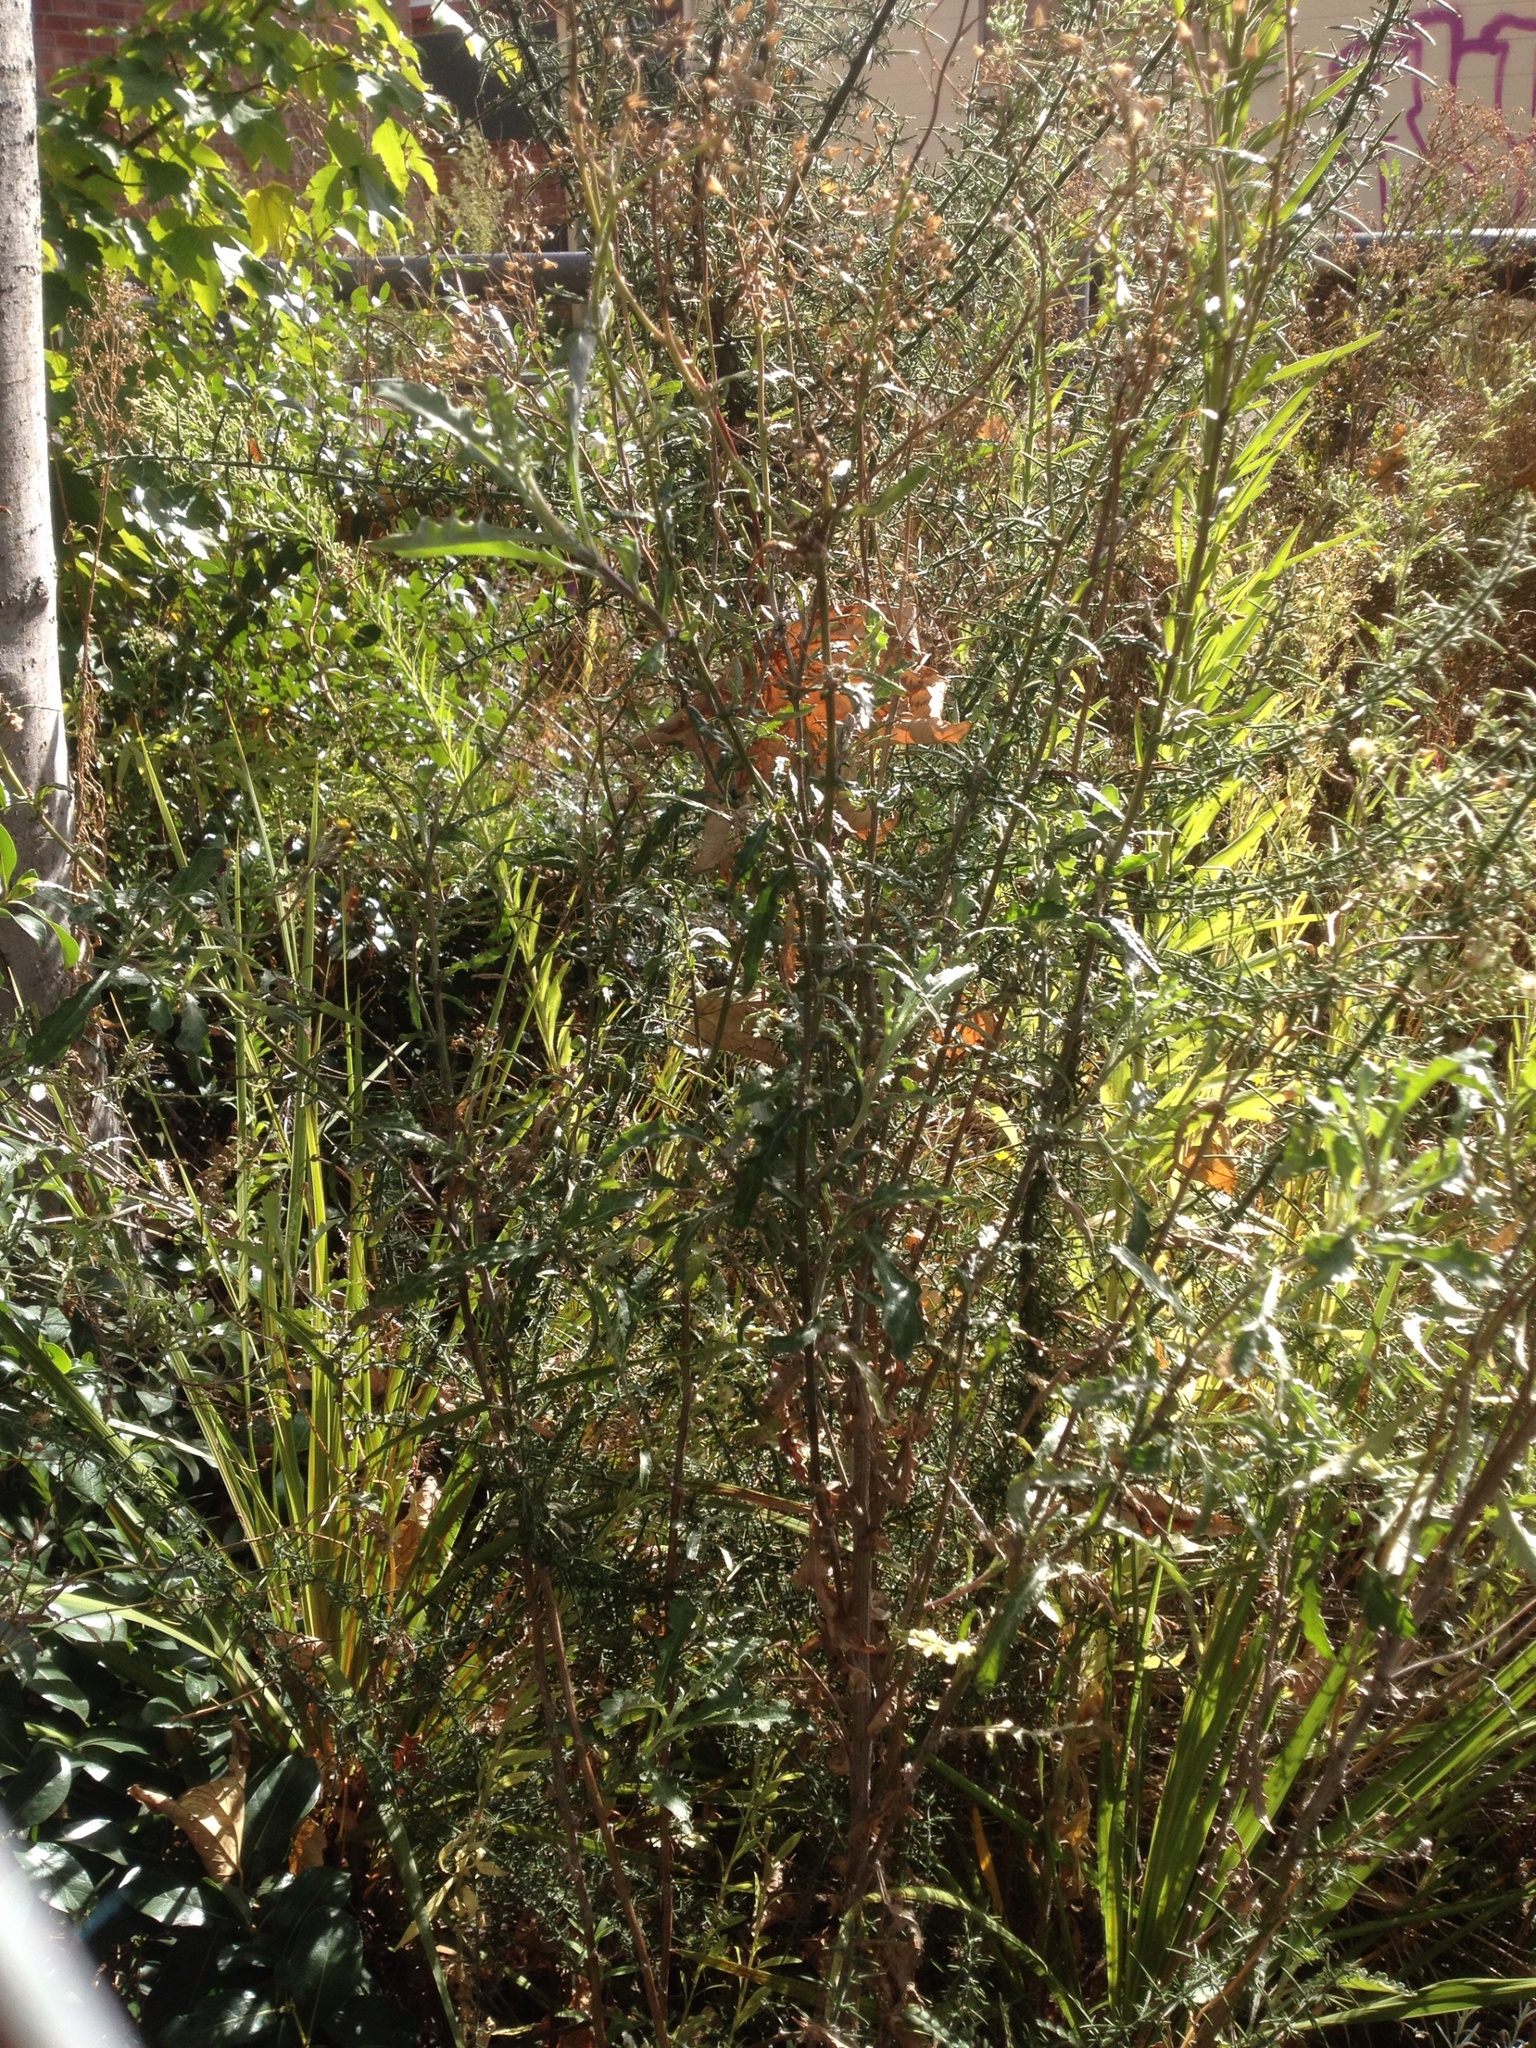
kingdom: Plantae
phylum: Tracheophyta
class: Magnoliopsida
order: Fabales
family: Fabaceae
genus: Ulex
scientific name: Ulex europaeus
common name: Common gorse
